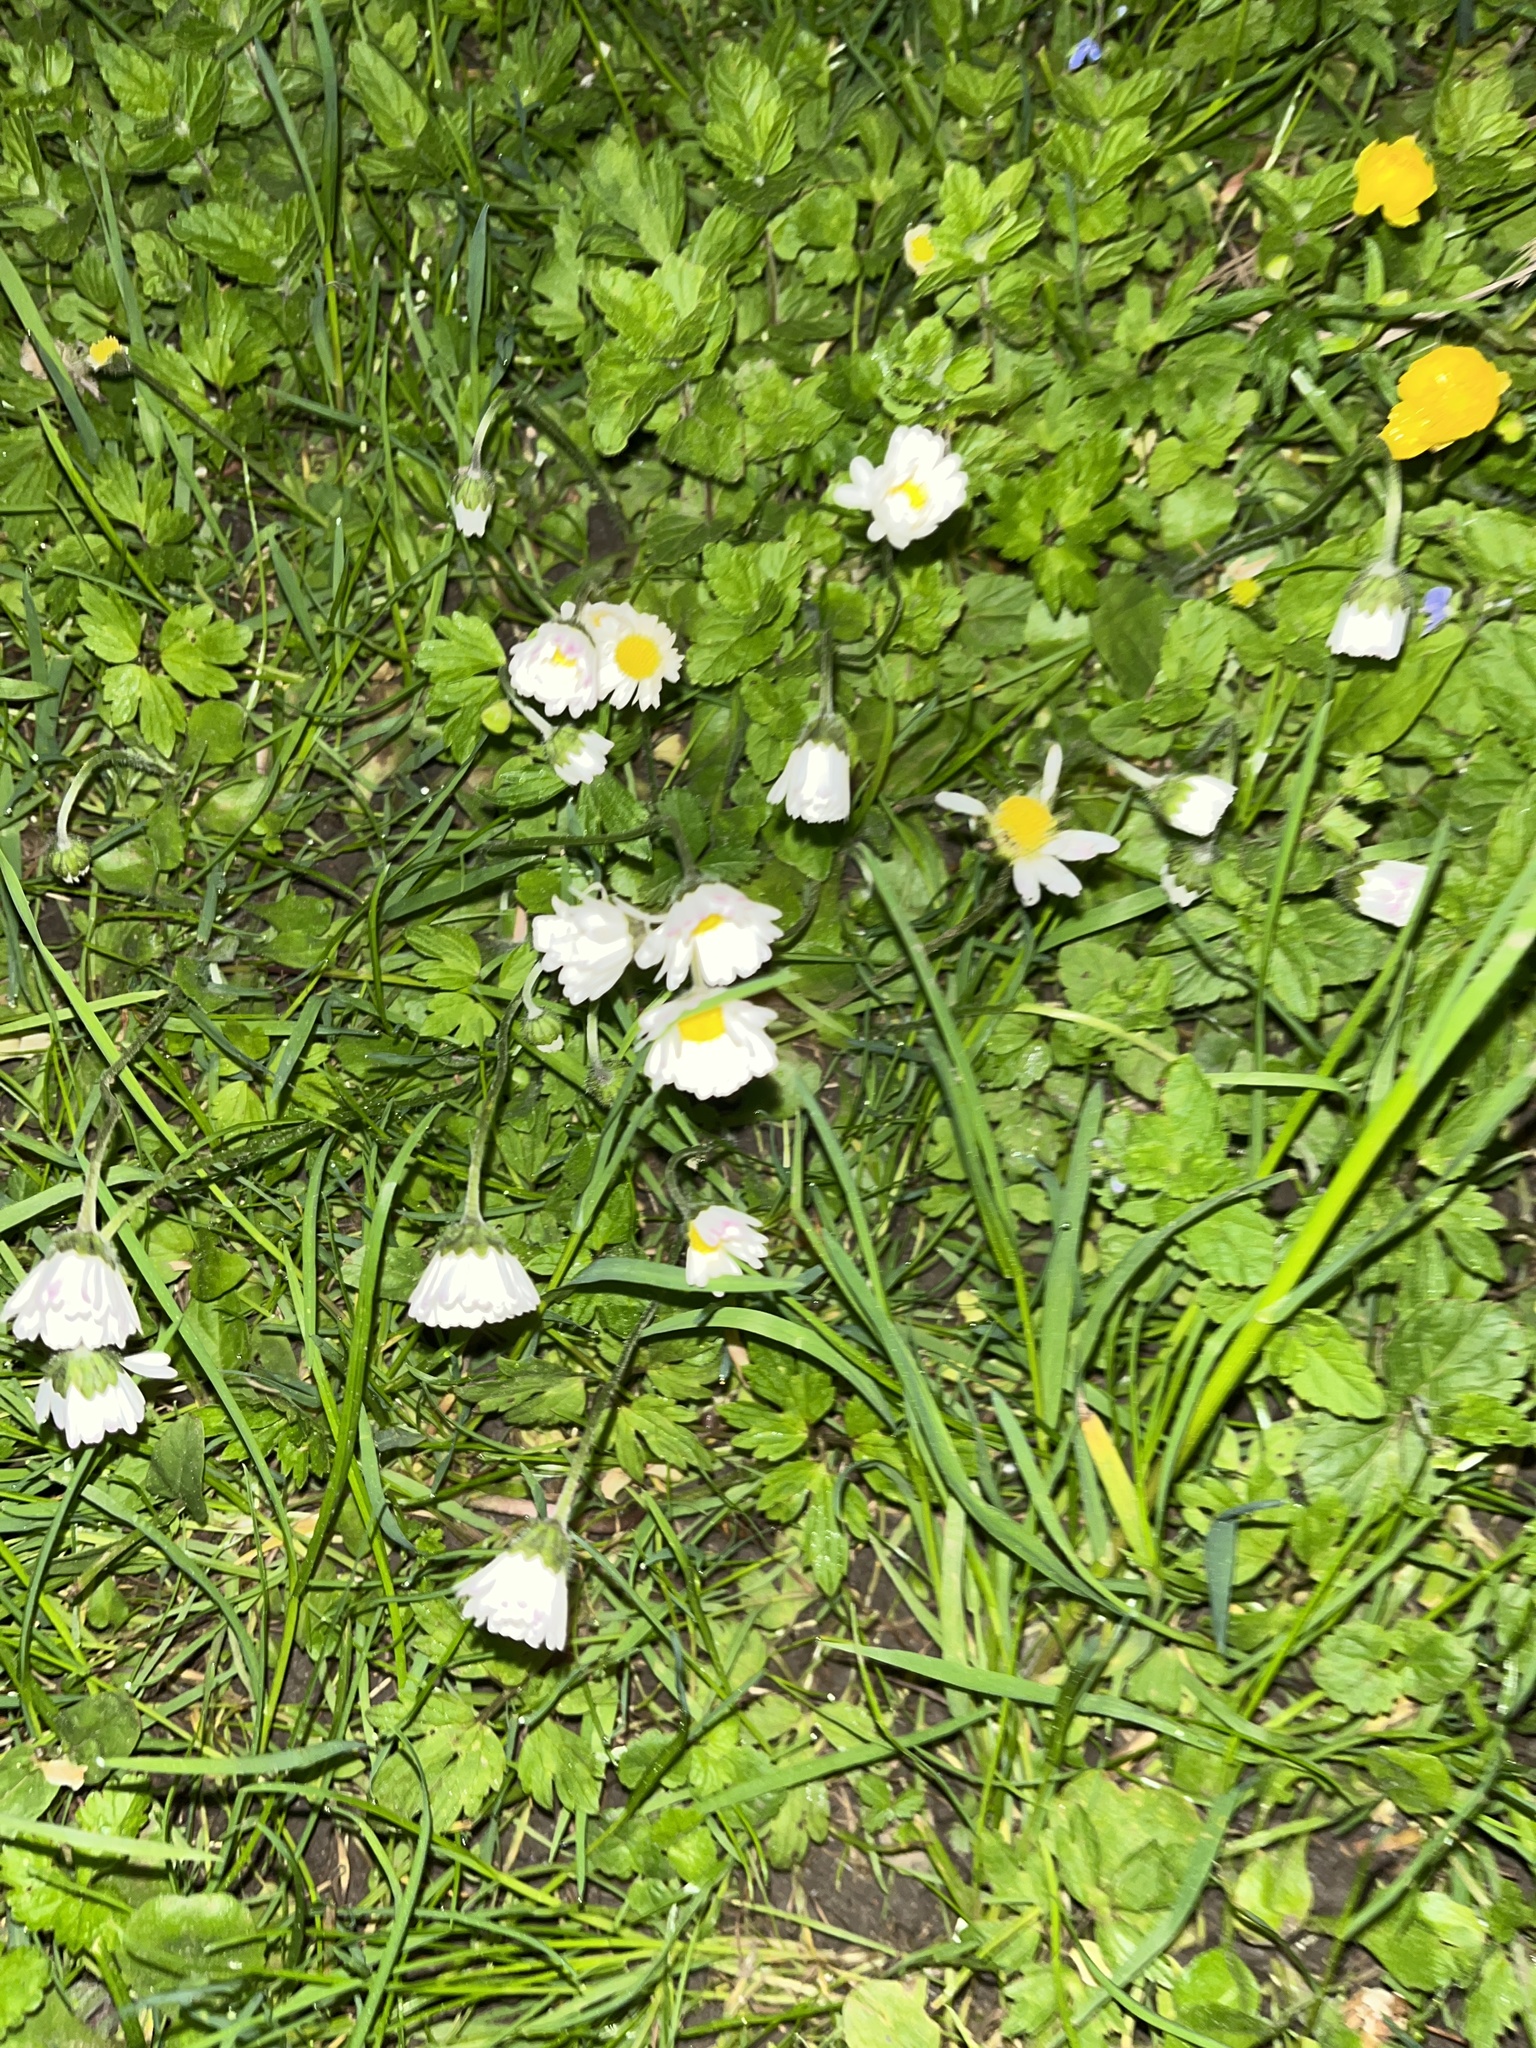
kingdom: Plantae
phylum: Tracheophyta
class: Magnoliopsida
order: Asterales
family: Asteraceae
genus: Bellis
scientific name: Bellis perennis
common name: Lawndaisy
